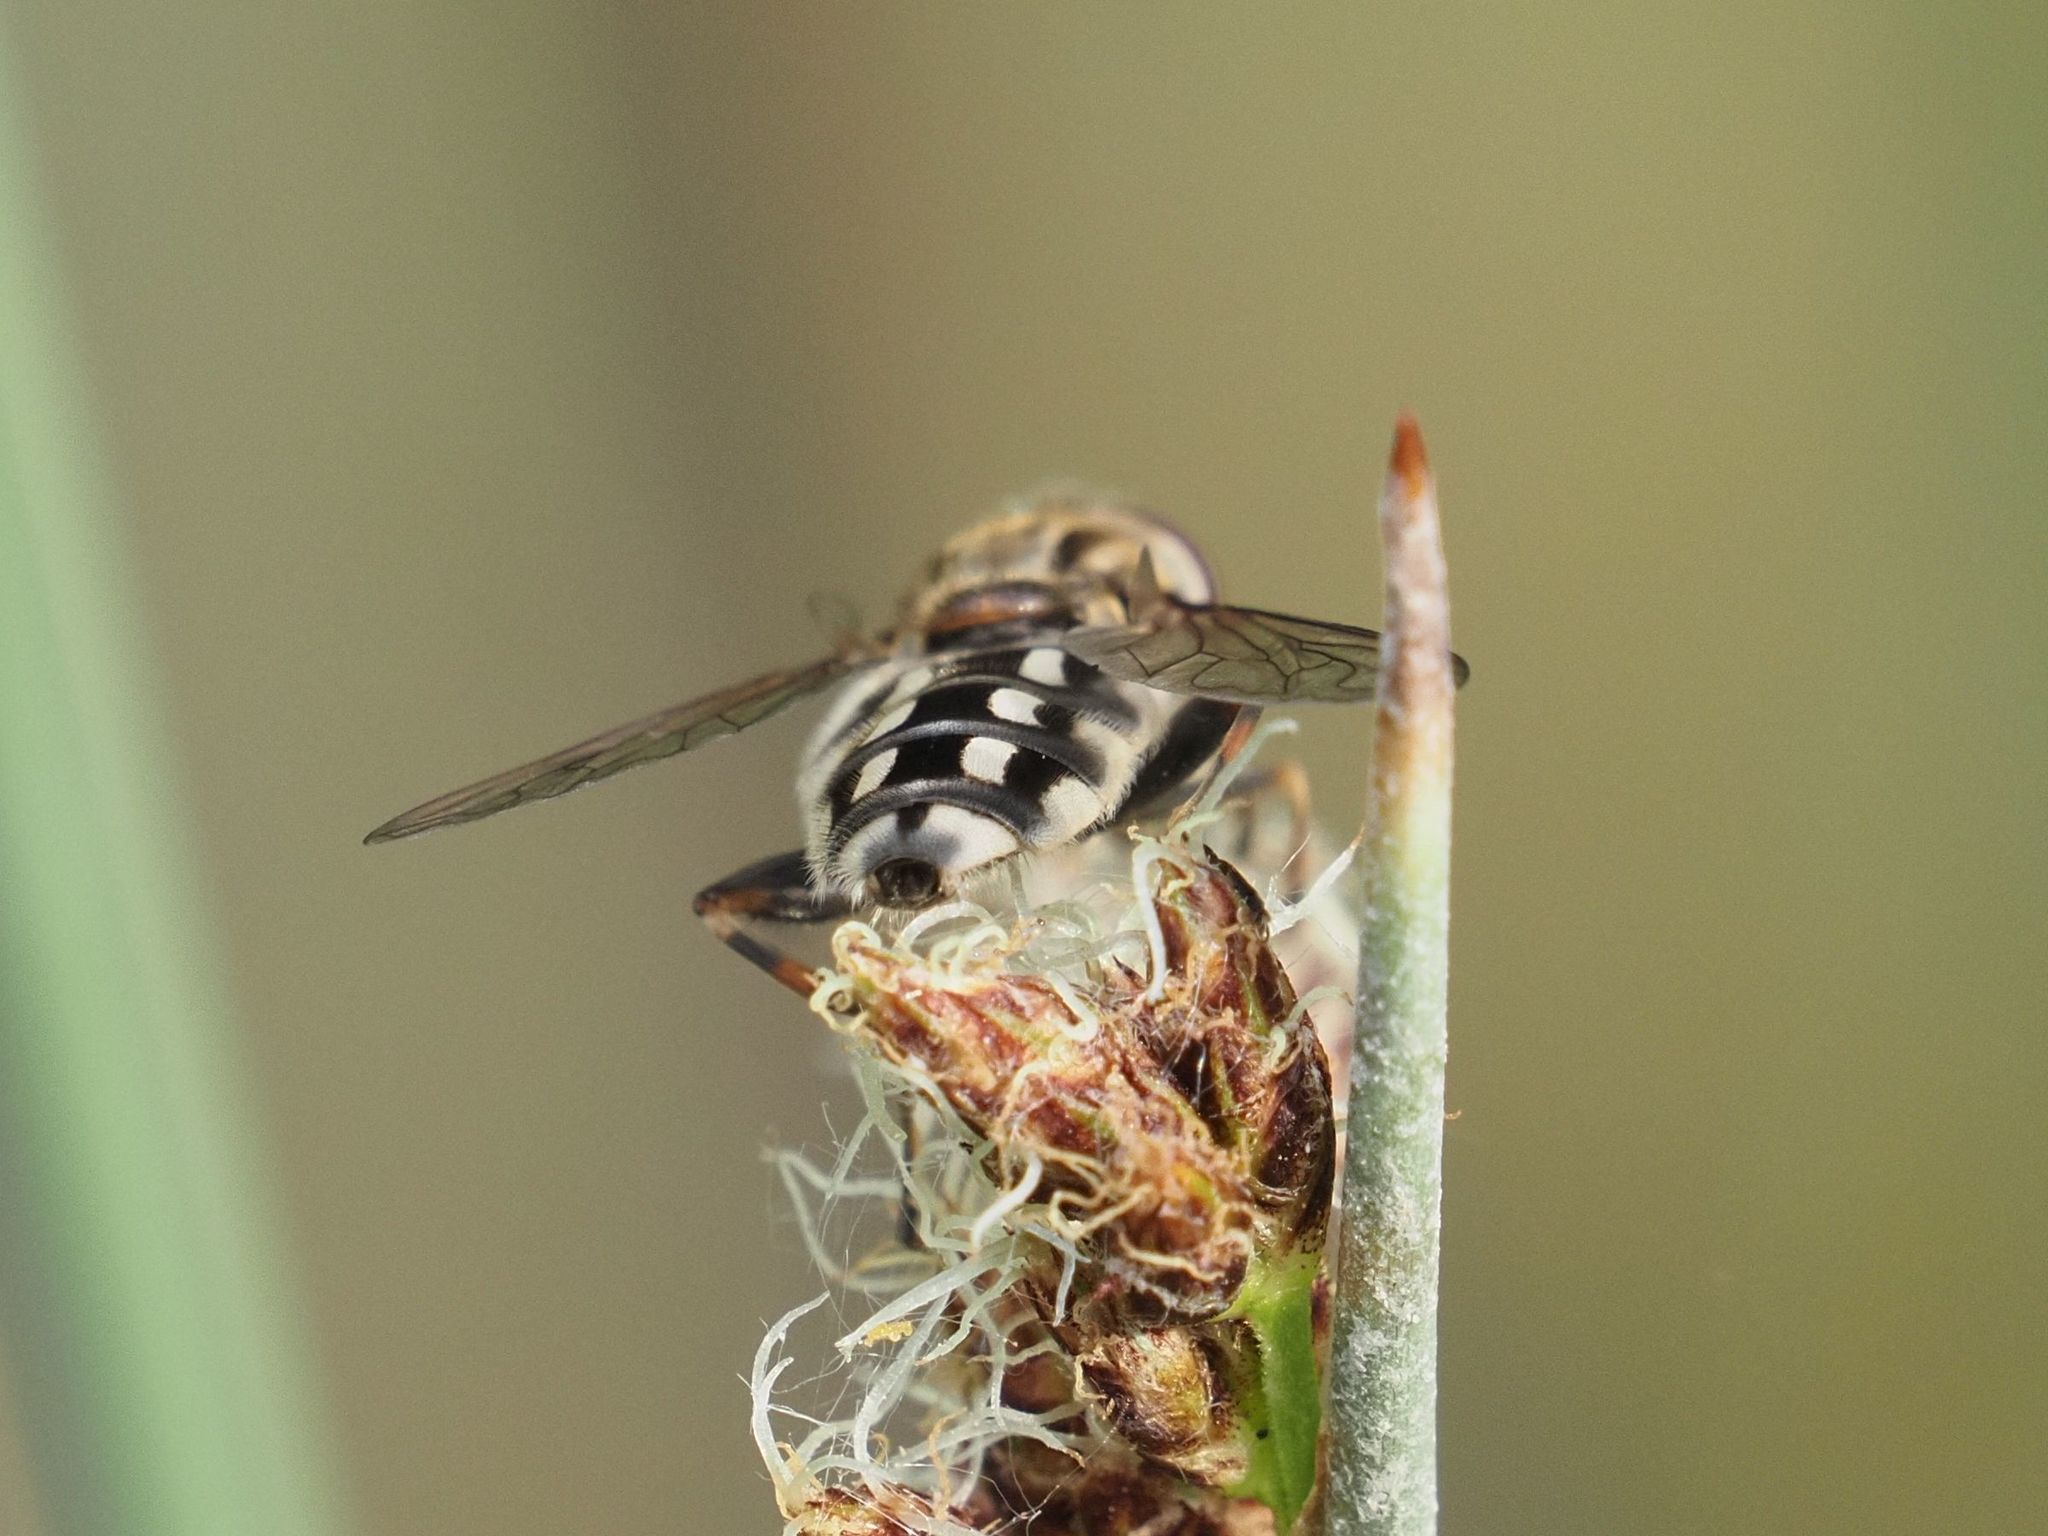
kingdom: Animalia
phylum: Arthropoda
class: Insecta
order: Diptera
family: Syrphidae
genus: Lejops
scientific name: Lejops vittatus
